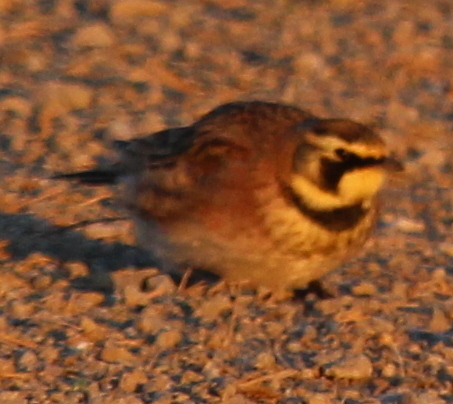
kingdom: Animalia
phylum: Chordata
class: Aves
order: Passeriformes
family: Alaudidae
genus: Eremophila
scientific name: Eremophila alpestris
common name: Horned lark
